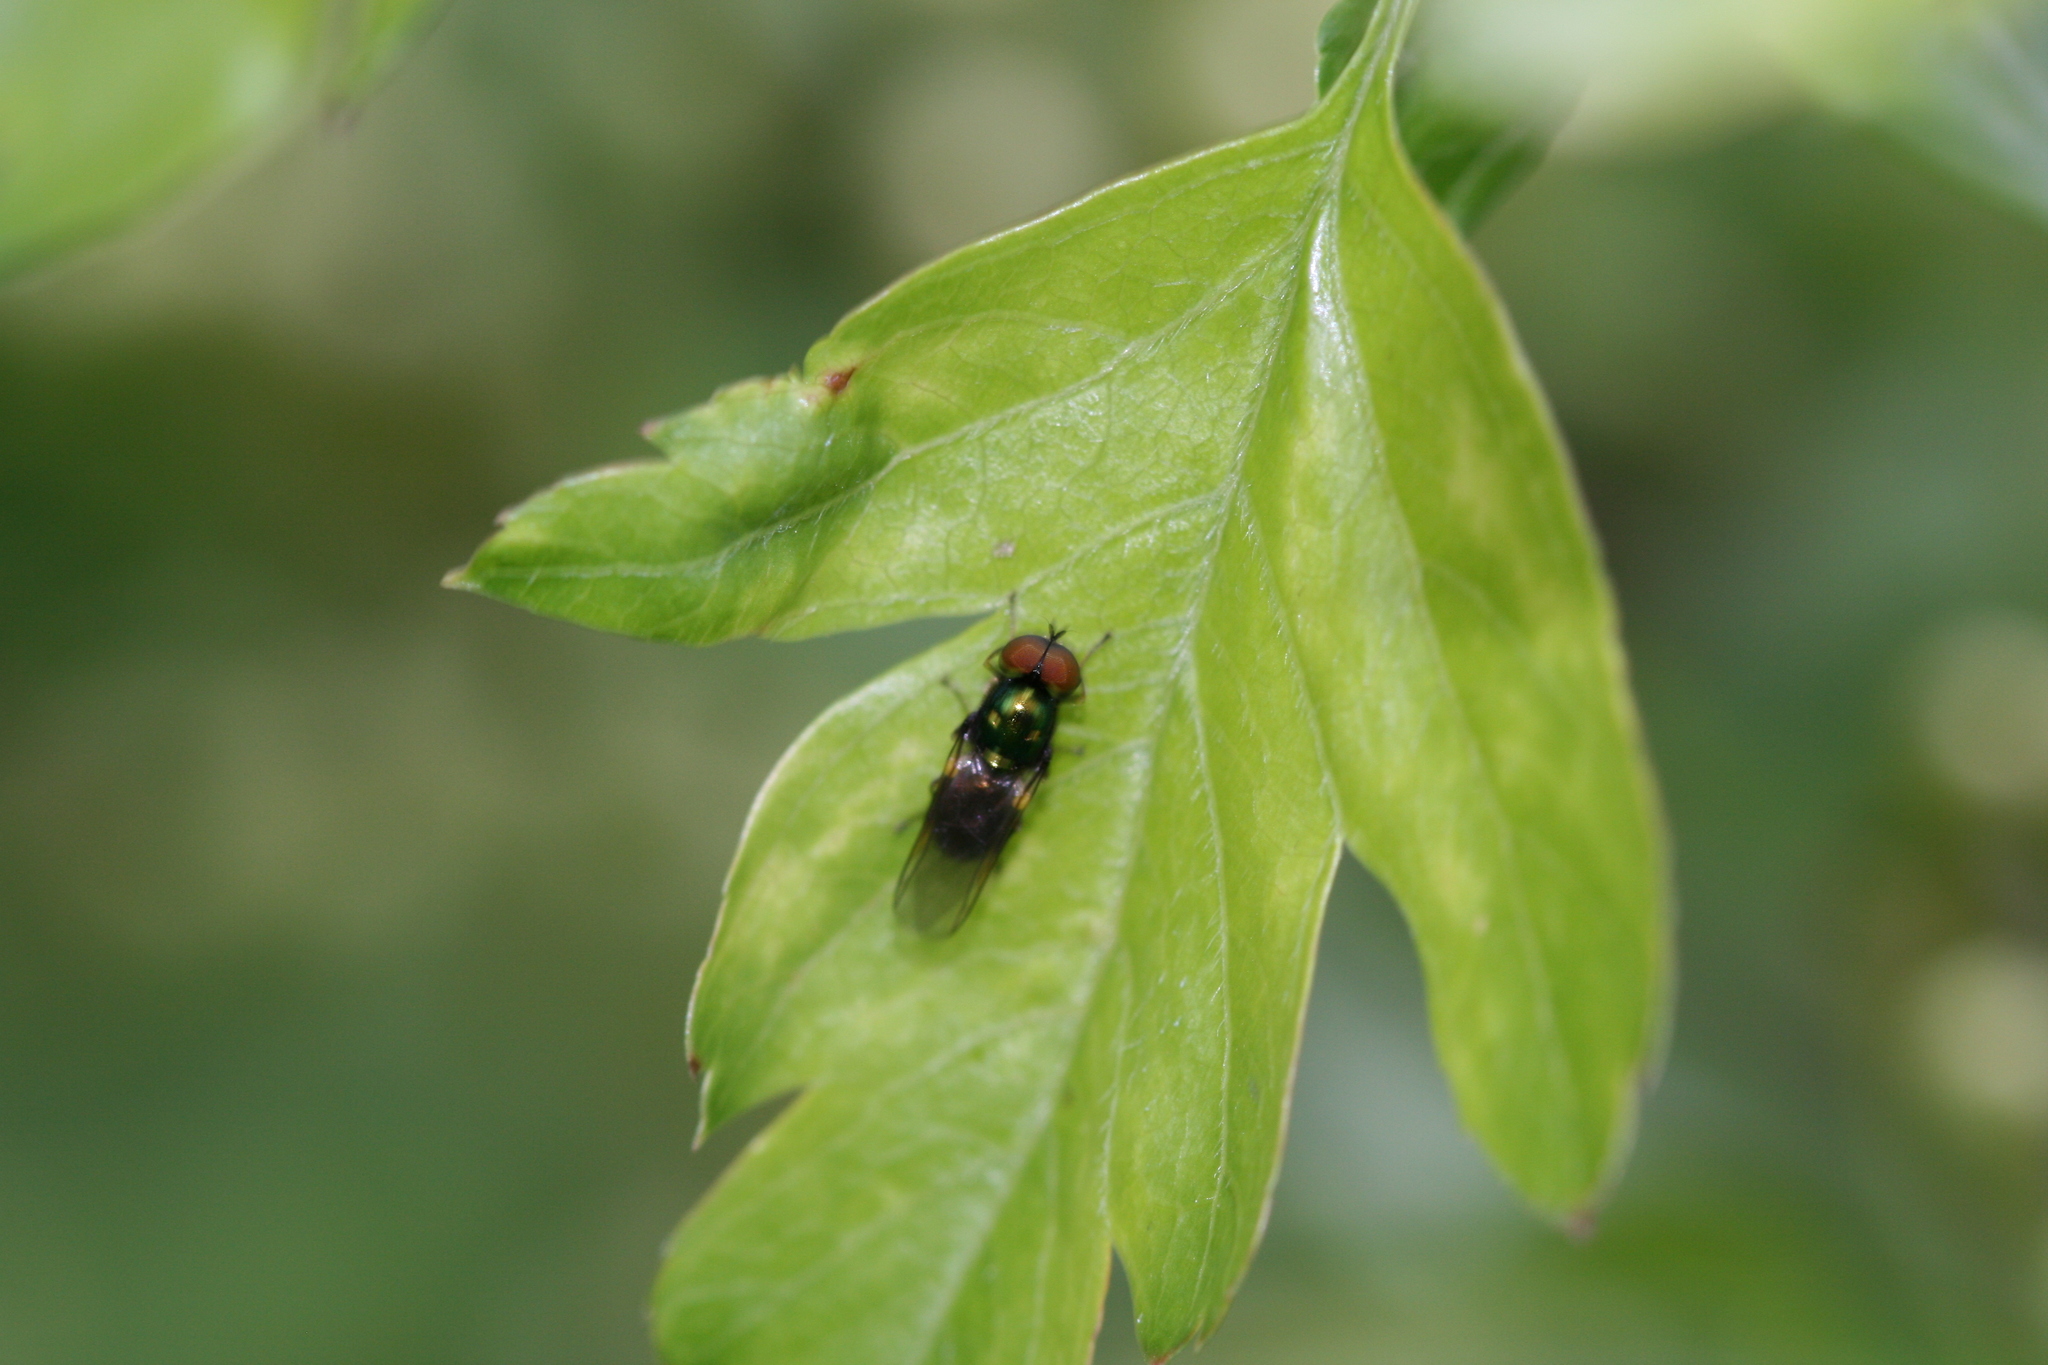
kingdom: Animalia
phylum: Arthropoda
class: Insecta
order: Diptera
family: Stratiomyidae
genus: Microchrysa
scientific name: Microchrysa polita
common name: Black-horned gem
